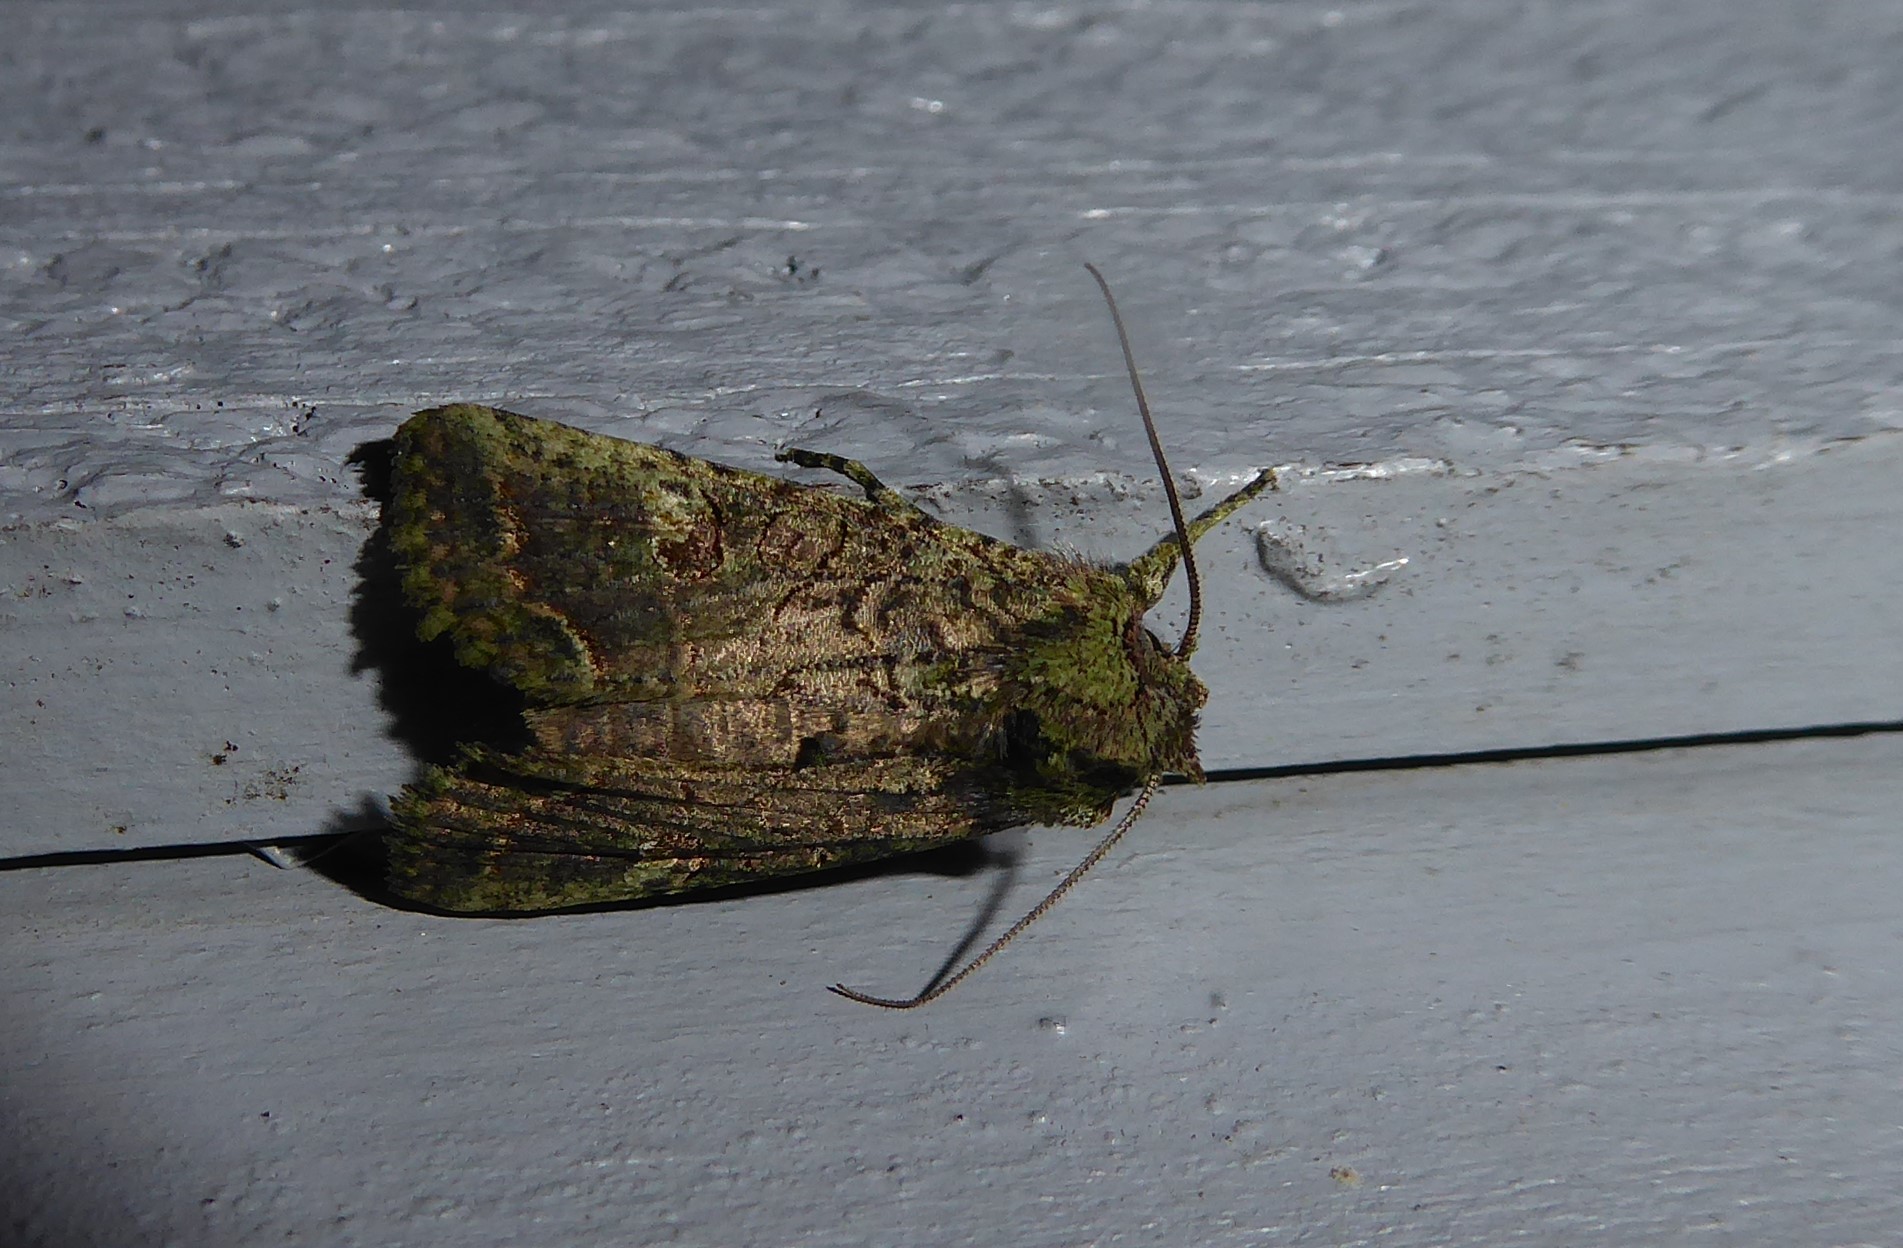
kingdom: Animalia
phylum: Arthropoda
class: Insecta
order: Lepidoptera
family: Noctuidae
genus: Meterana
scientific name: Meterana levis
